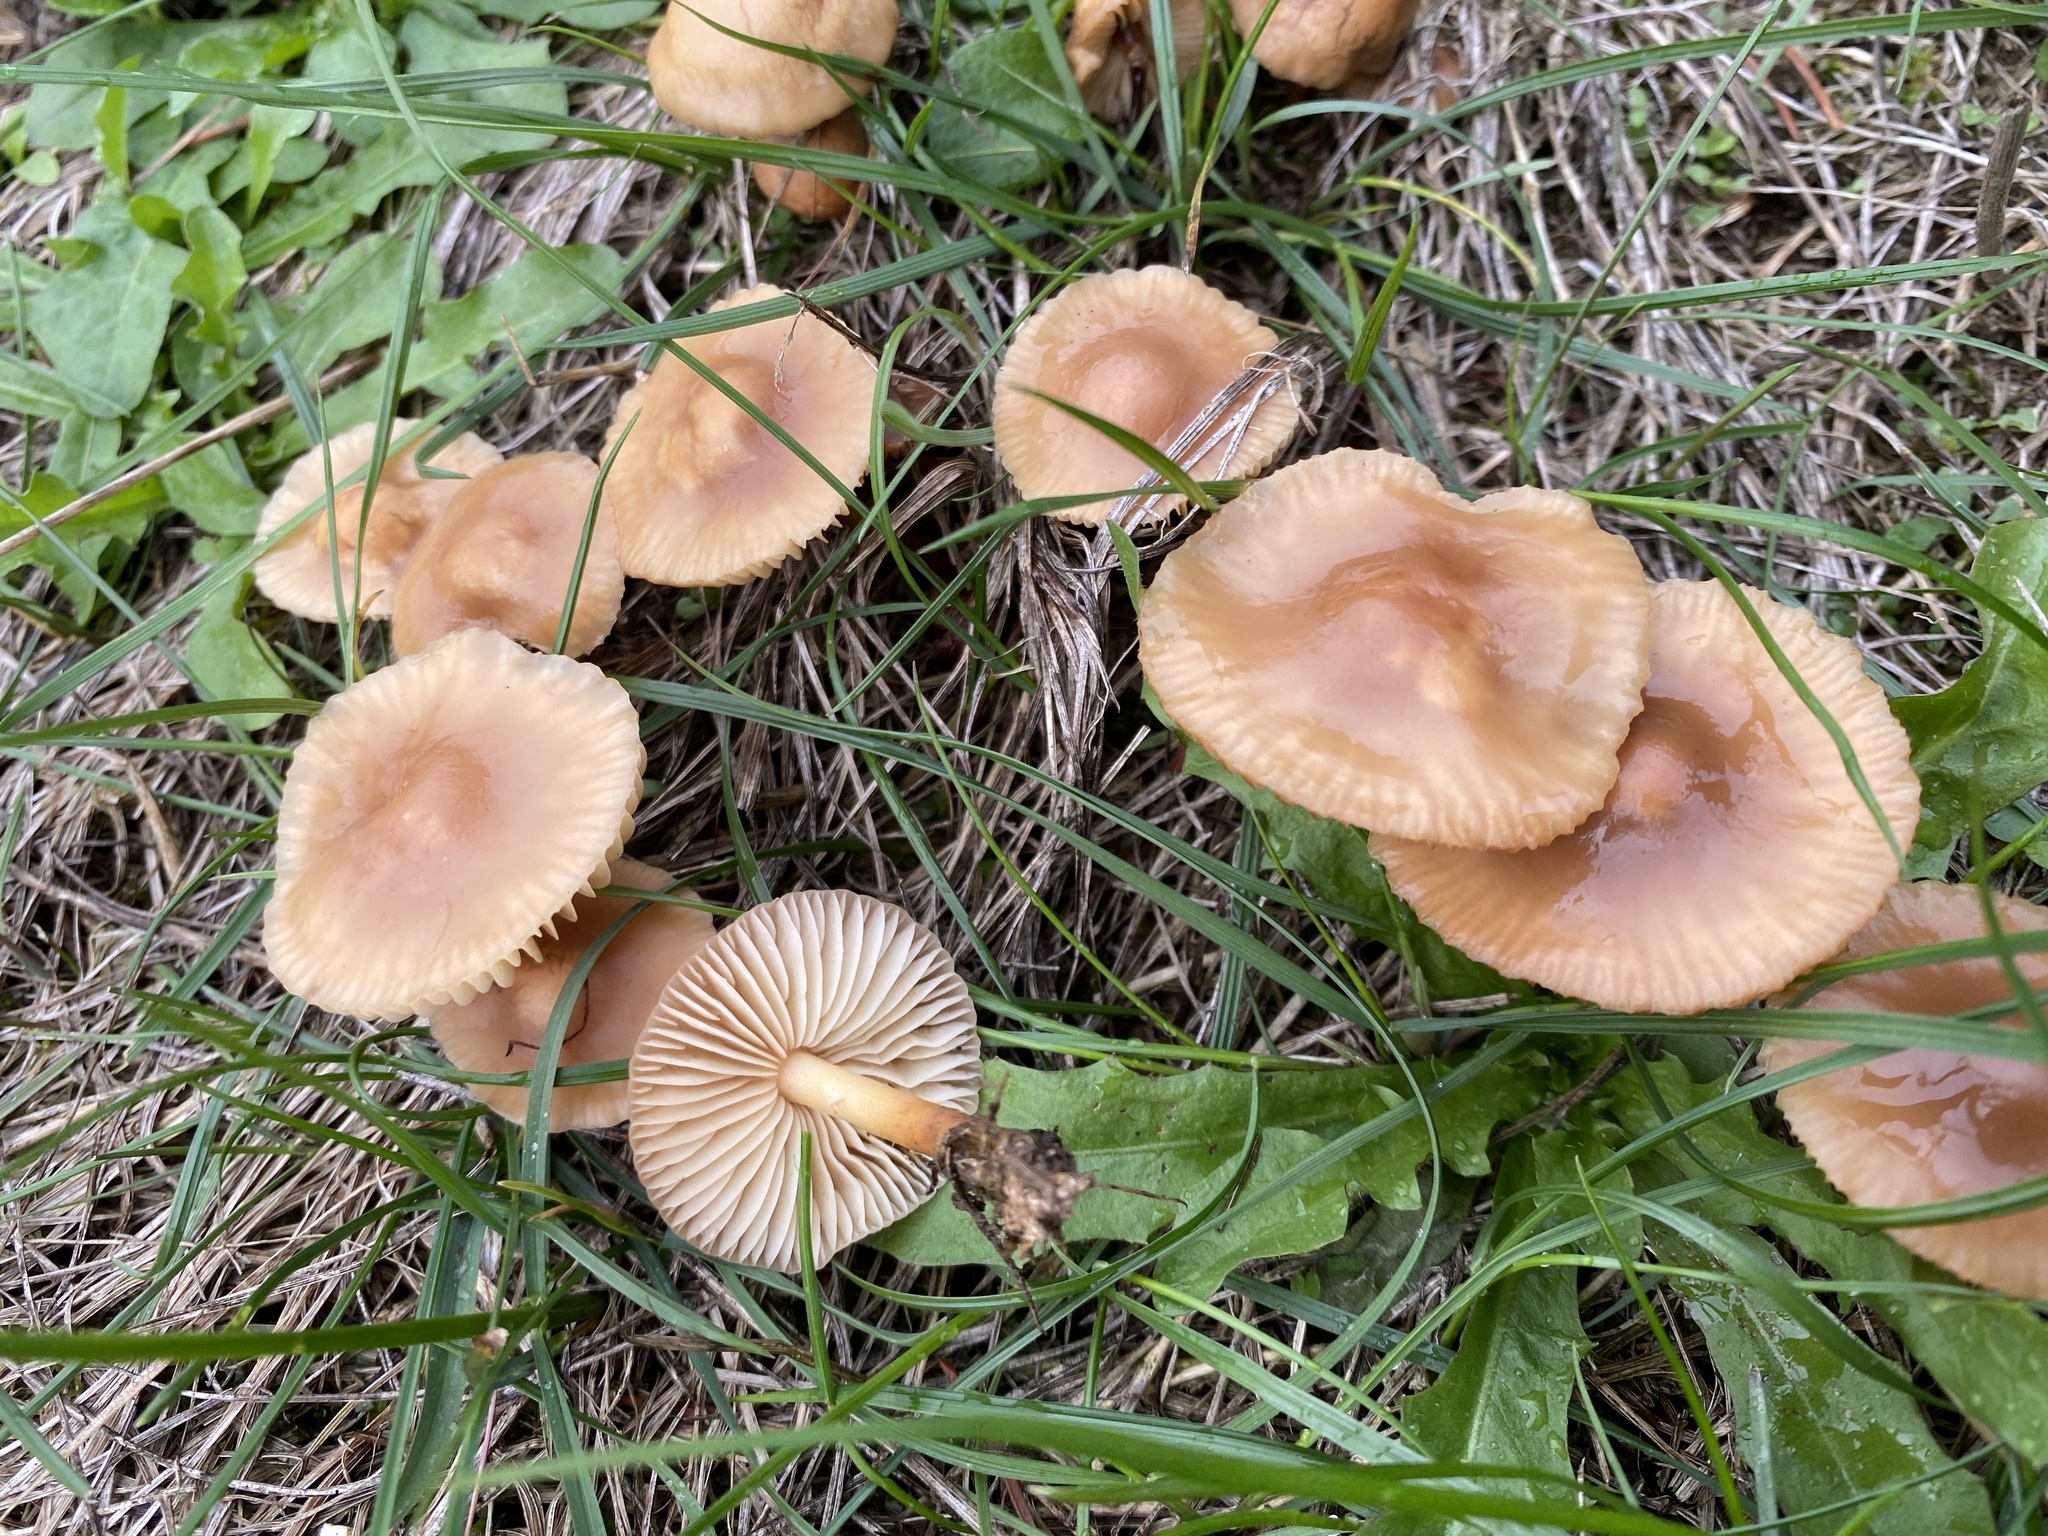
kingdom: Fungi
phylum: Basidiomycota
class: Agaricomycetes
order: Agaricales
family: Marasmiaceae
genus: Marasmius
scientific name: Marasmius oreades
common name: Fairy ring champignon
